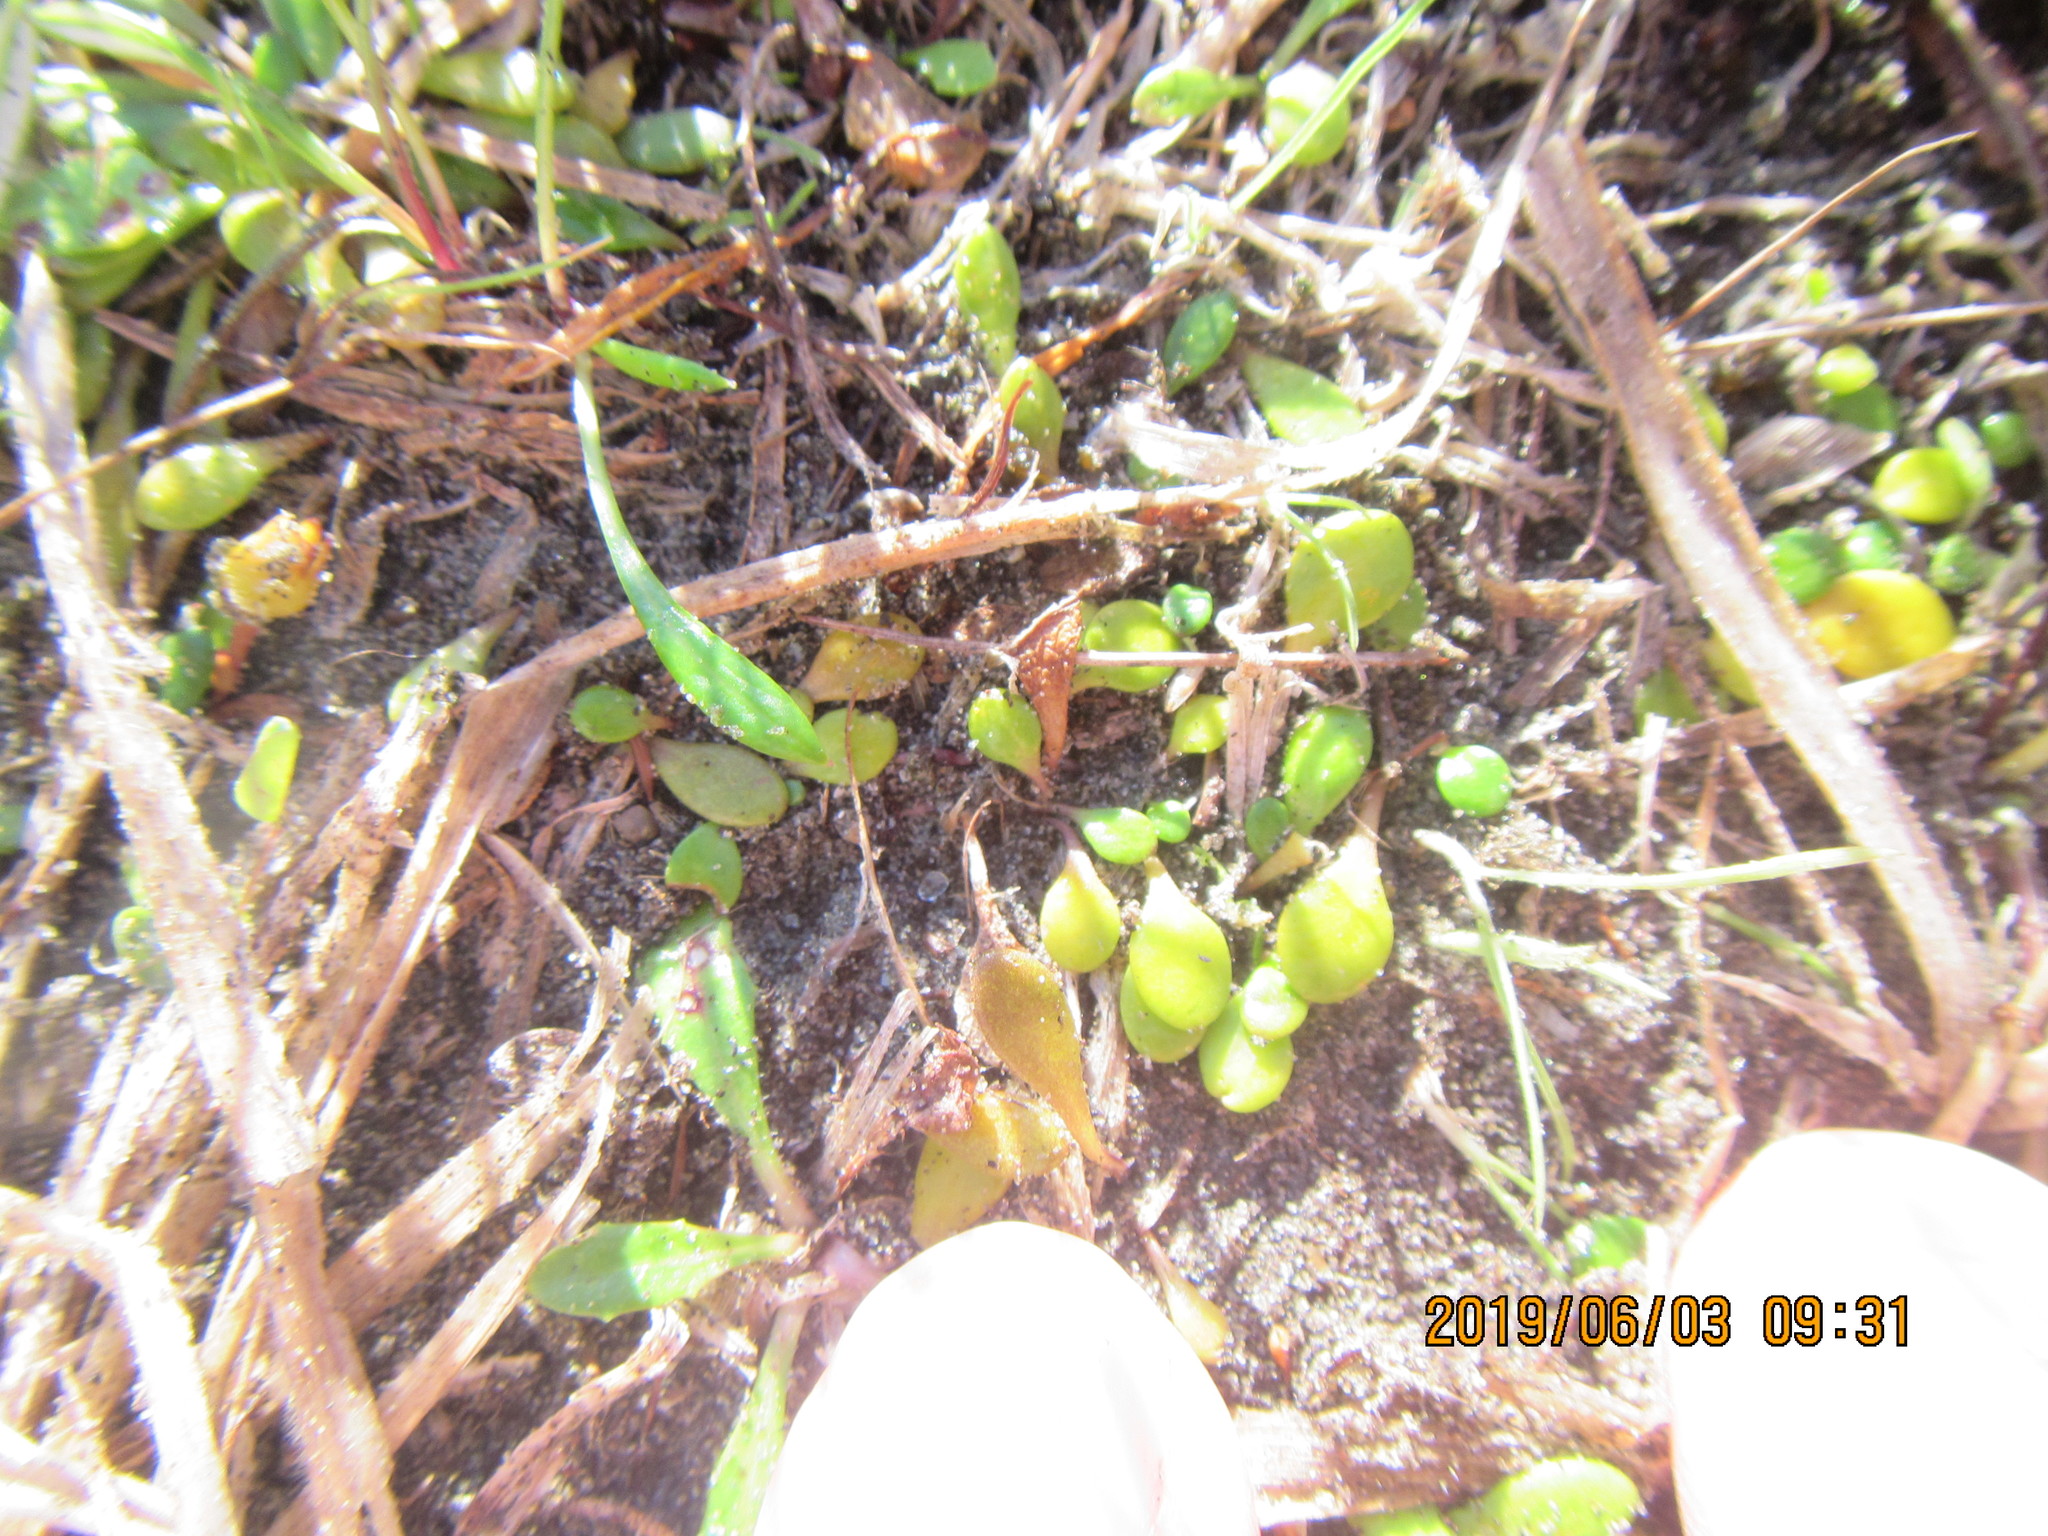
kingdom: Plantae
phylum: Tracheophyta
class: Magnoliopsida
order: Asterales
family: Goodeniaceae
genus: Goodenia
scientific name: Goodenia radicans
